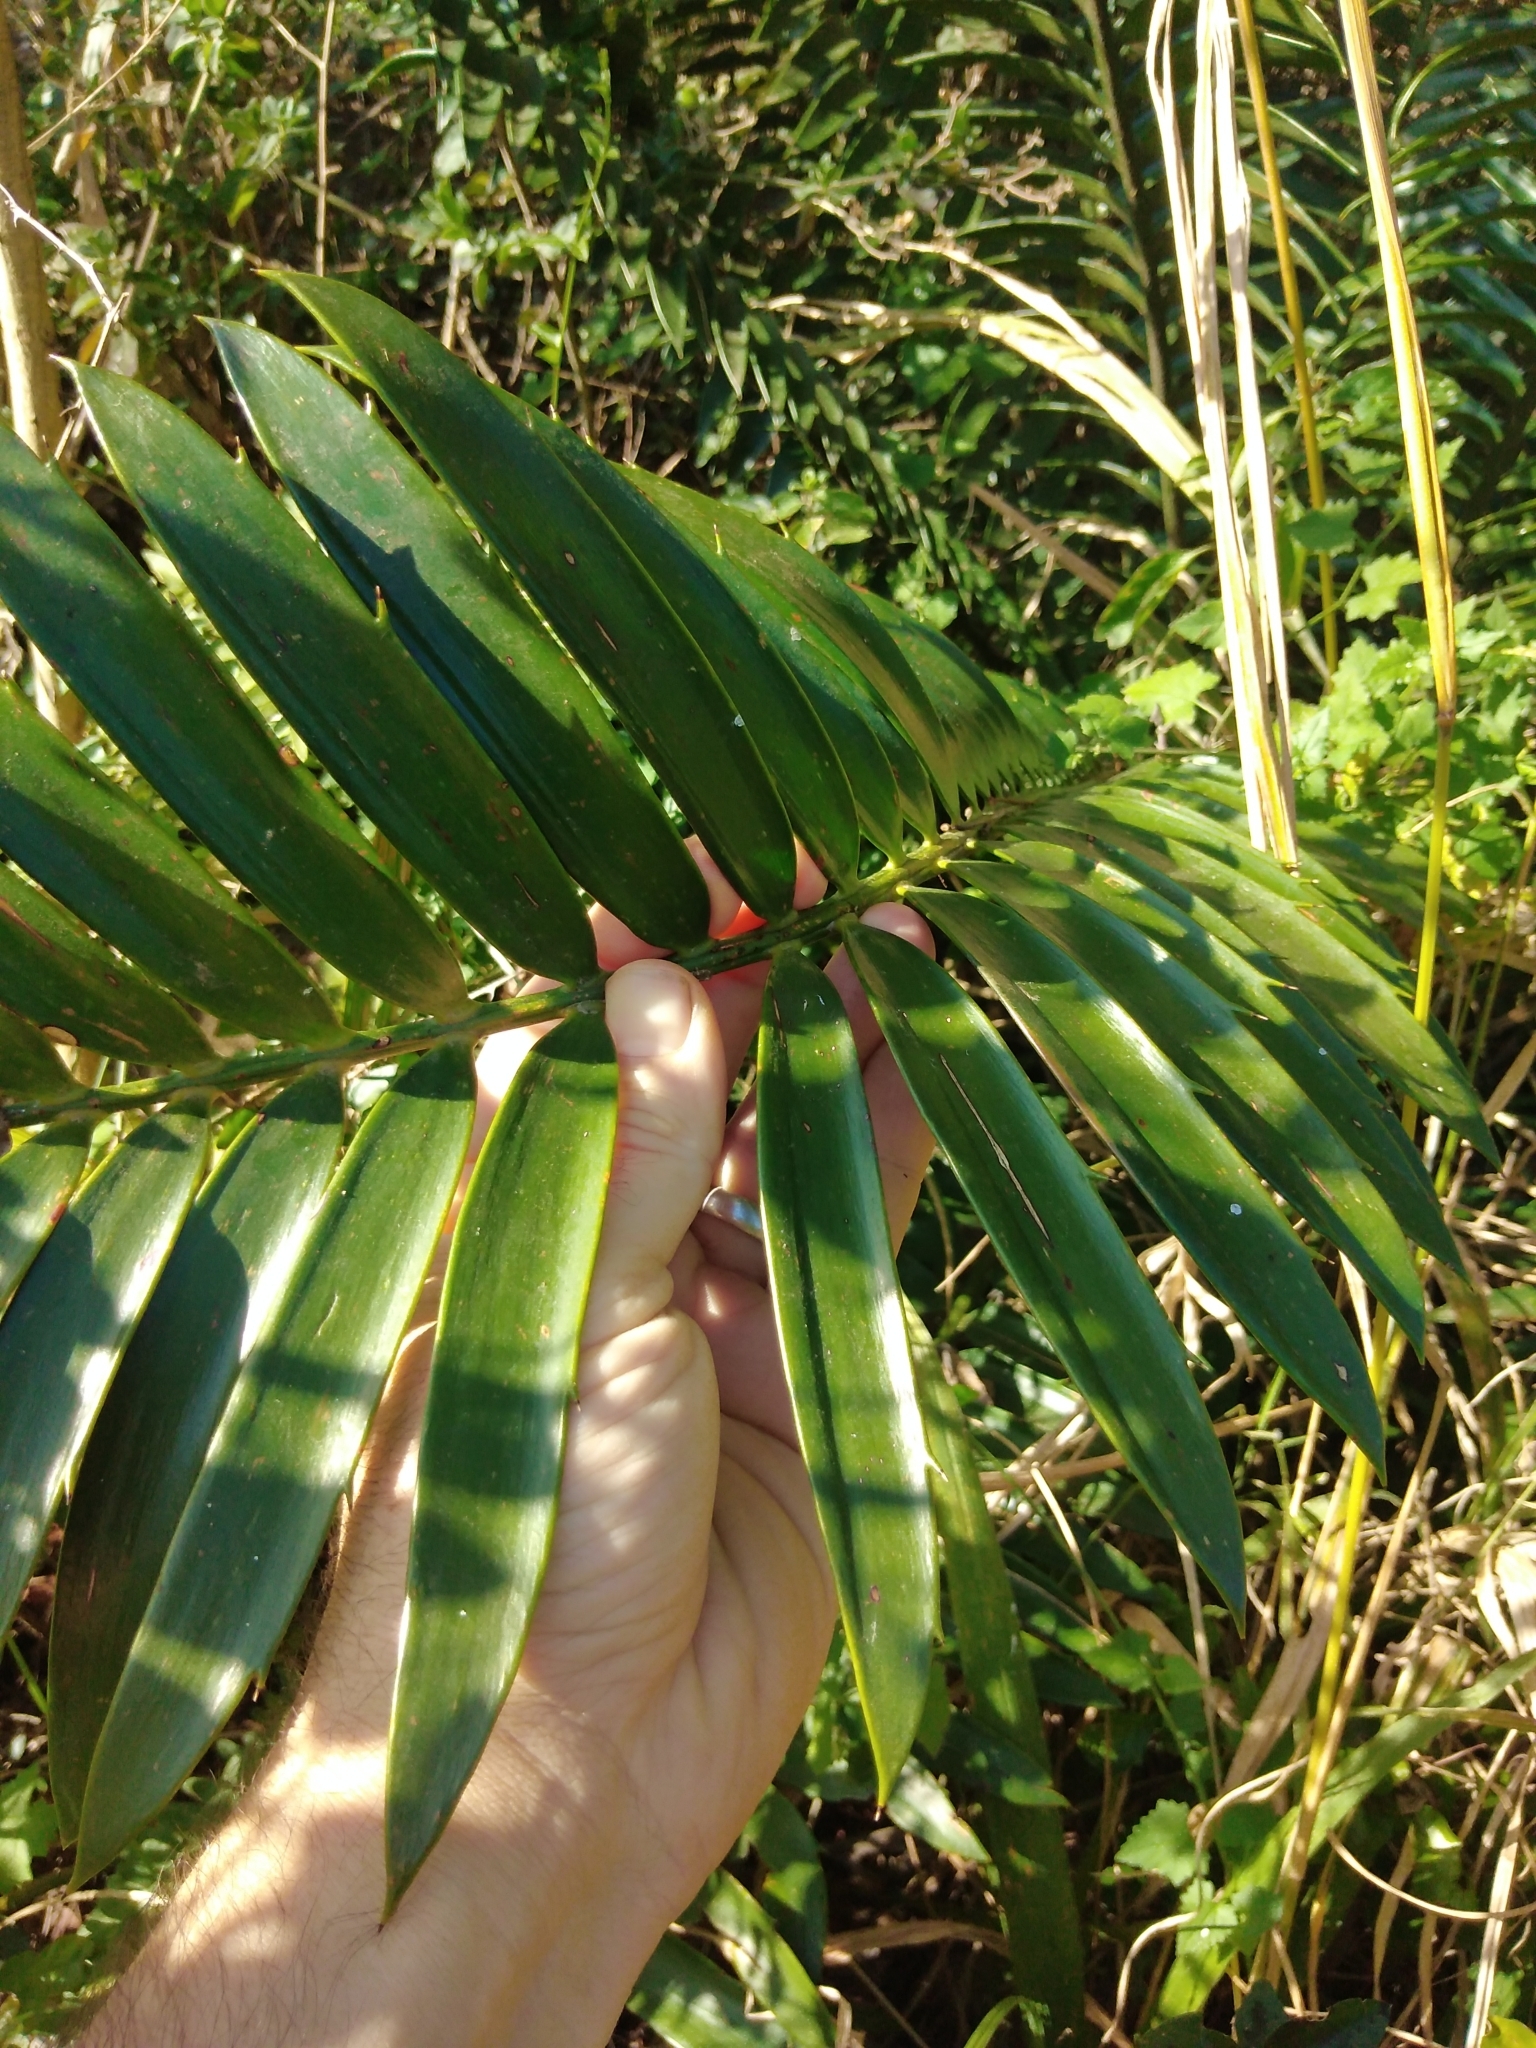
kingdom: Plantae
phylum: Tracheophyta
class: Cycadopsida
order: Cycadales
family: Zamiaceae
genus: Encephalartos
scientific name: Encephalartos natalensis
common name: Natal cycad
